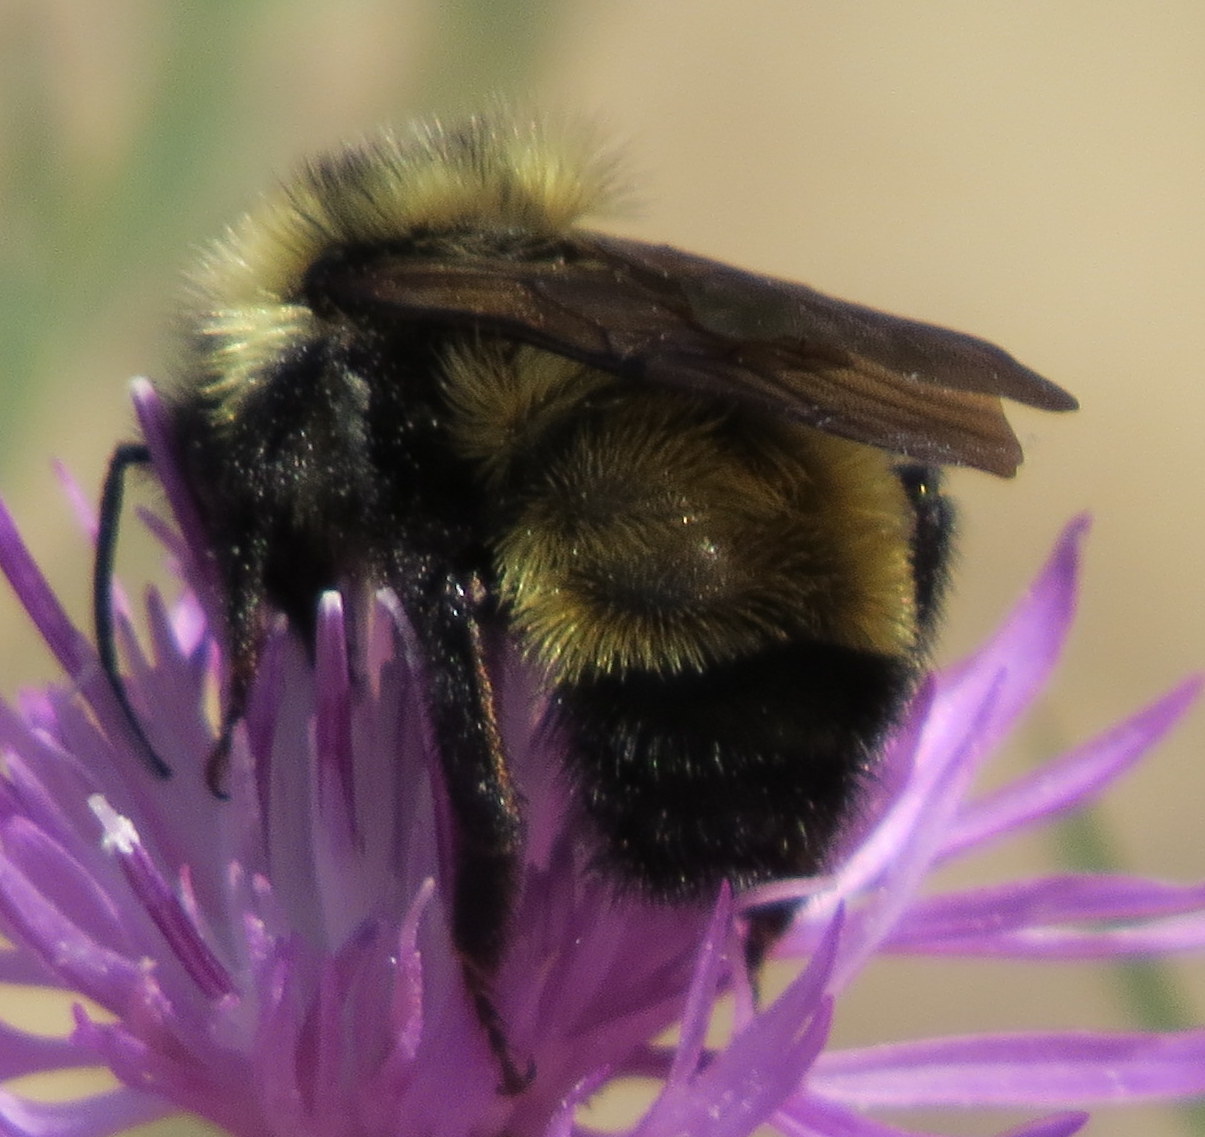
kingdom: Animalia
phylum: Arthropoda
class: Insecta
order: Hymenoptera
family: Apidae
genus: Bombus
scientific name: Bombus citrinus
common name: Lemon cuckoo bumble bee
